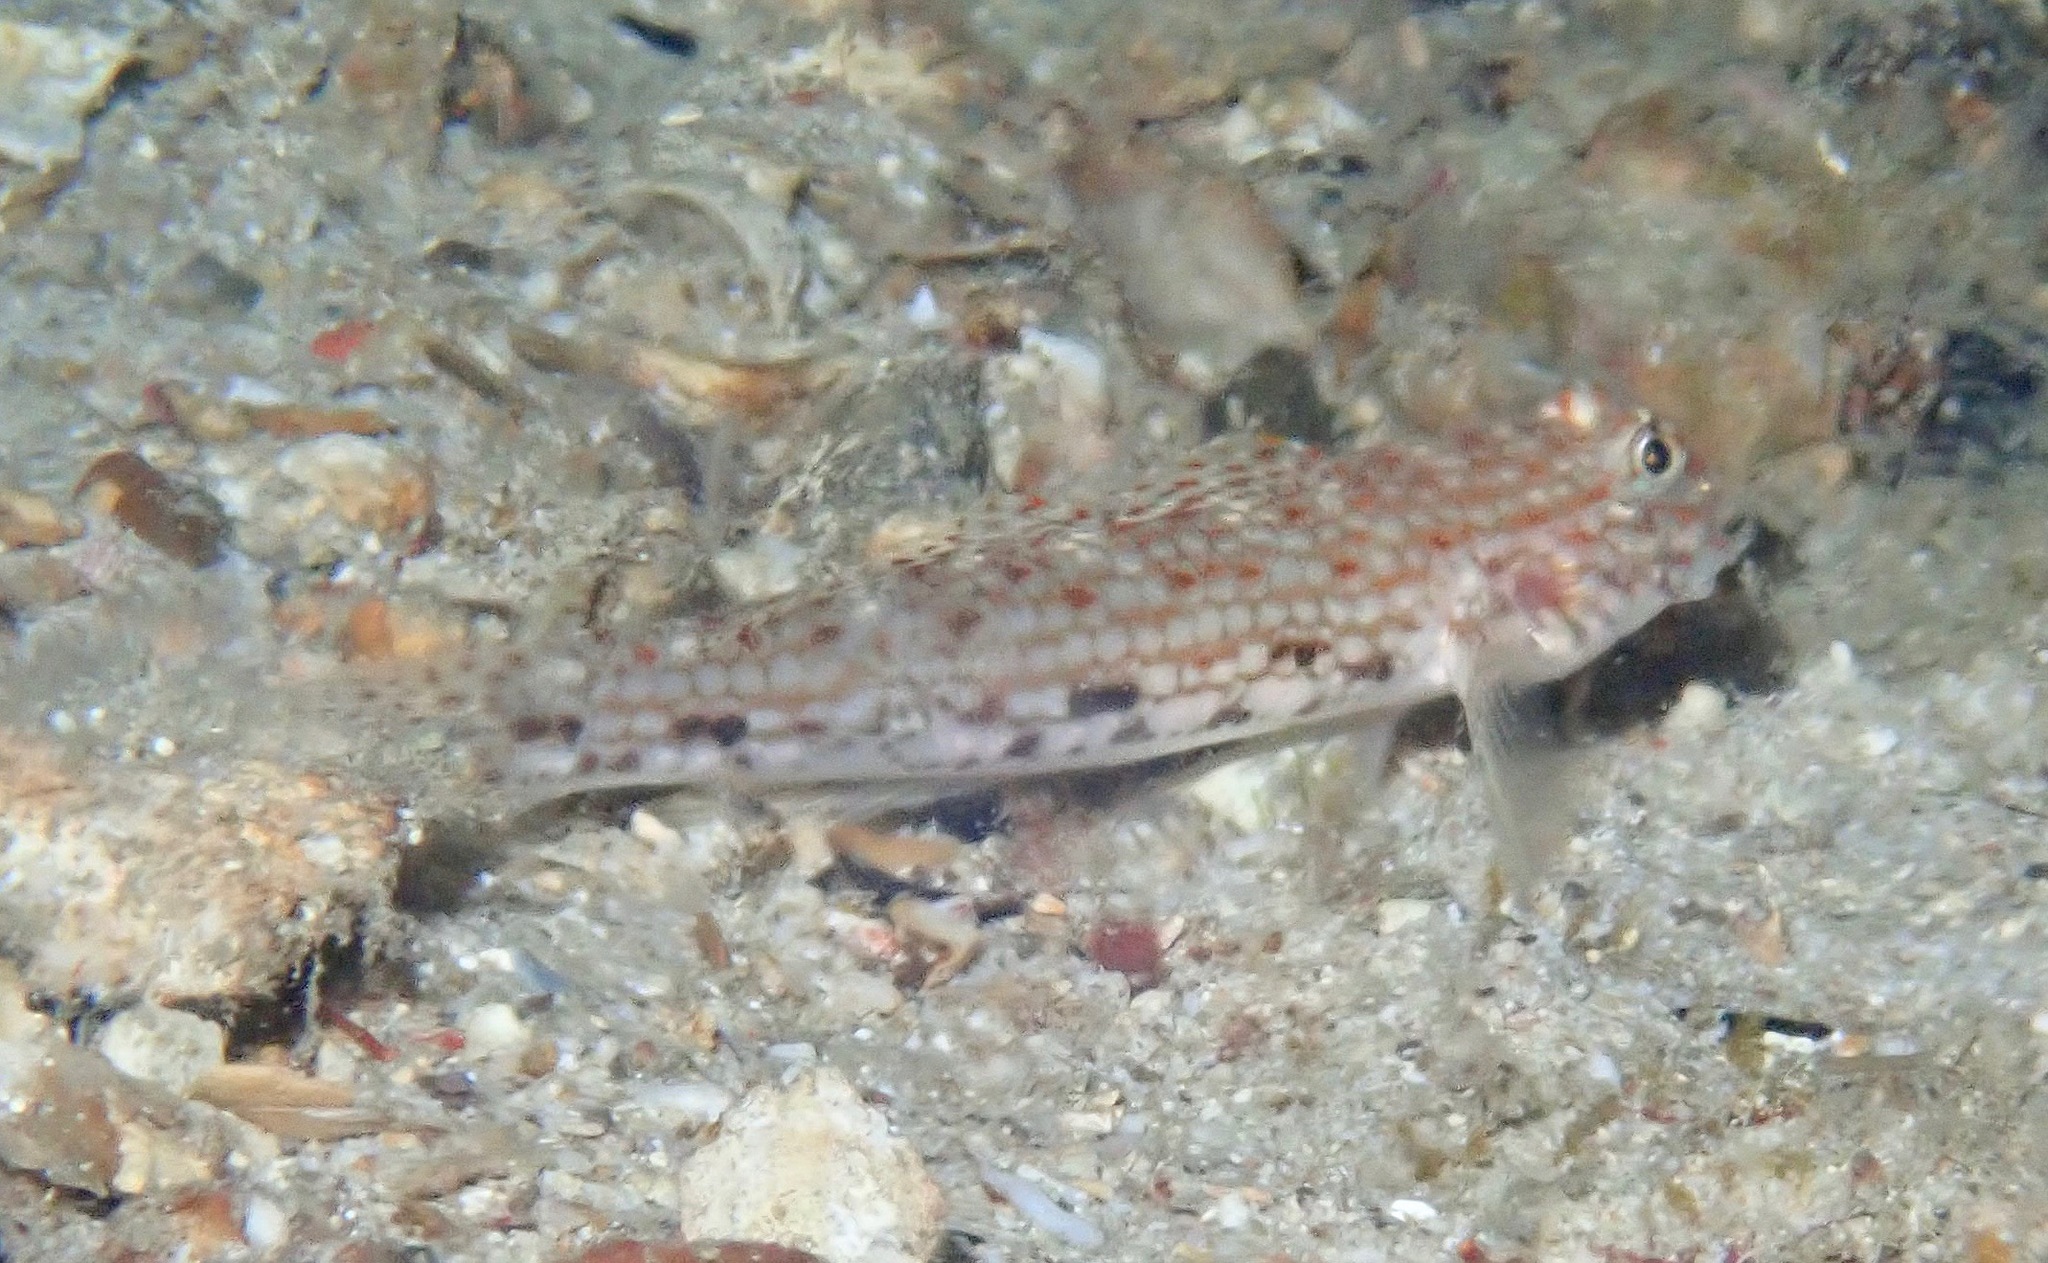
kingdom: Animalia
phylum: Chordata
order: Perciformes
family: Gobiidae
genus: Istigobius
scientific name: Istigobius decoratus
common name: Decorated goby
